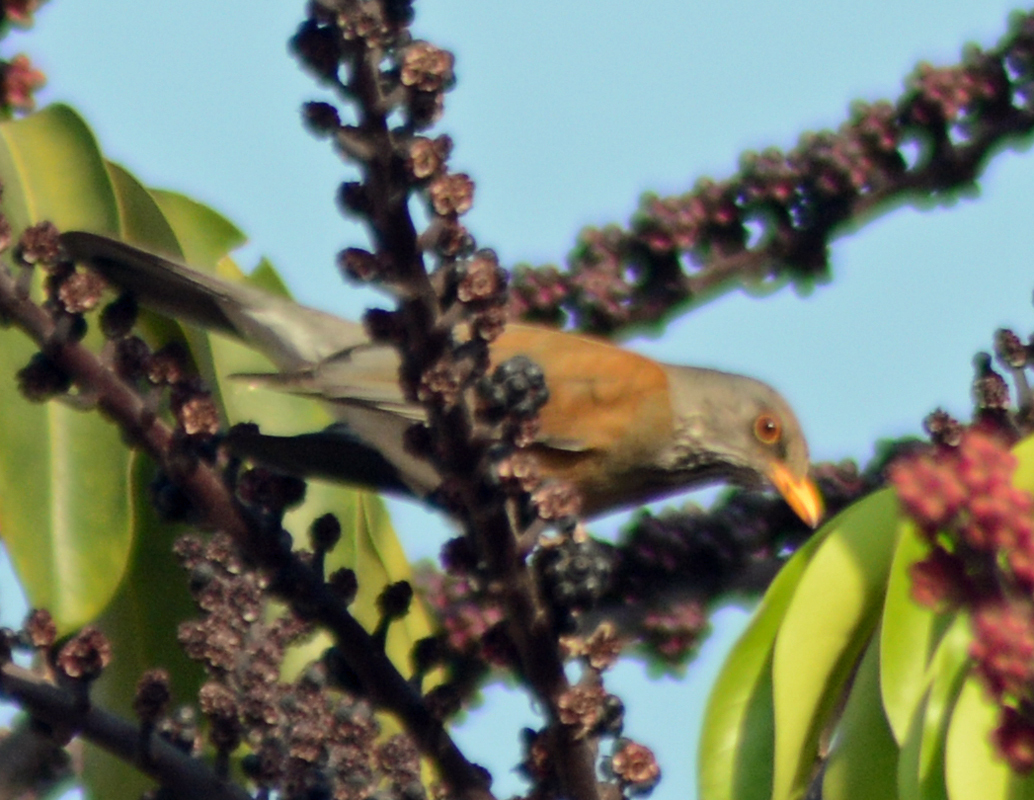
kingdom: Animalia
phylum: Chordata
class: Aves
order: Passeriformes
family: Turdidae
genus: Turdus
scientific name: Turdus rufopalliatus
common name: Rufous-backed robin
